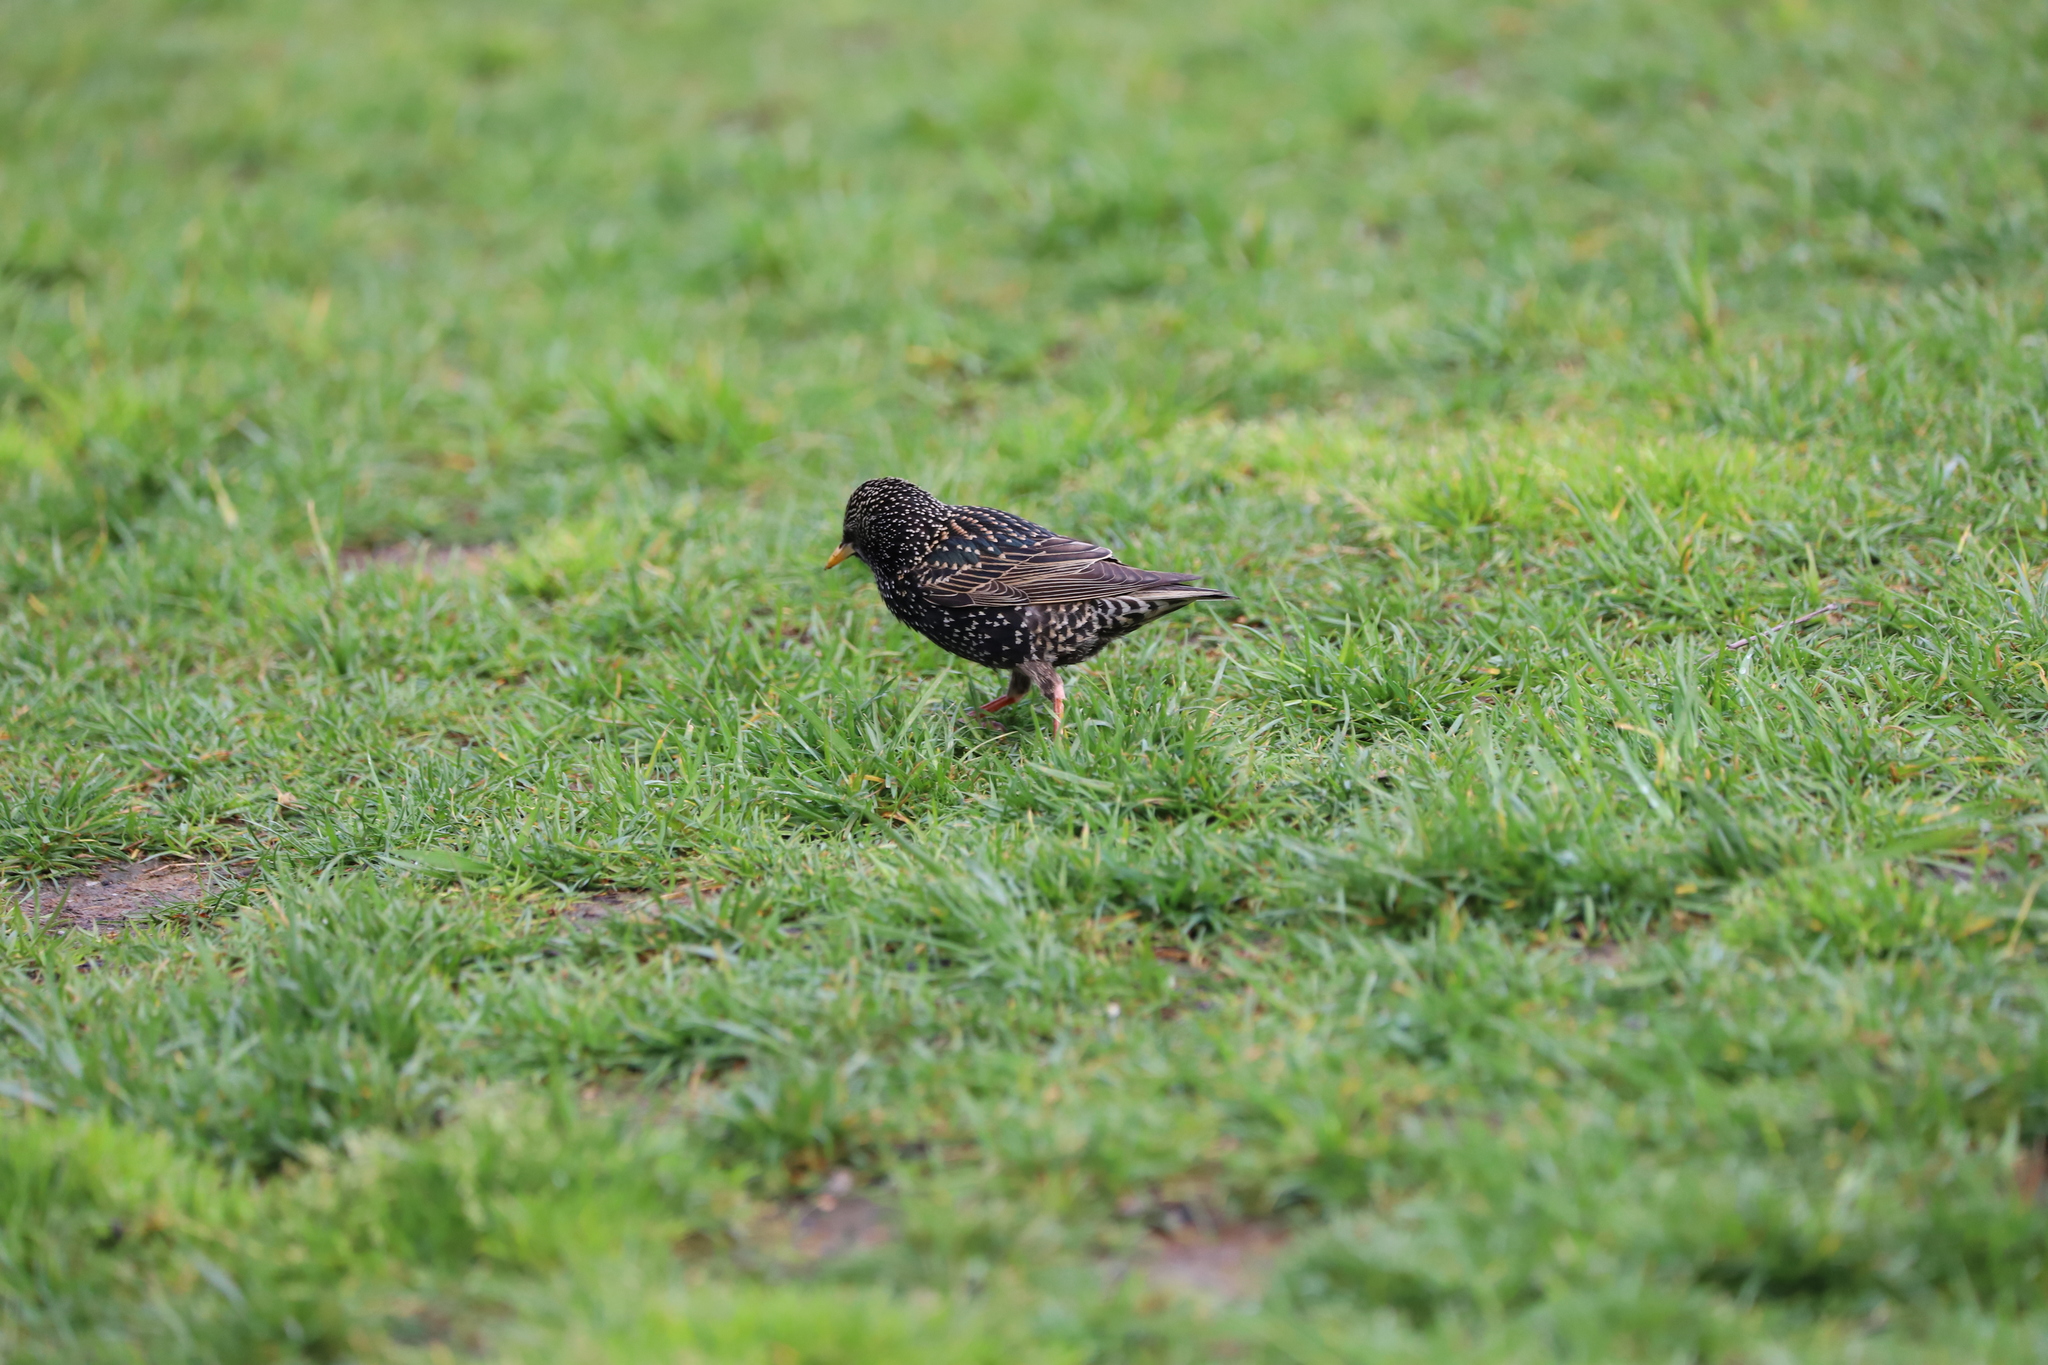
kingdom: Animalia
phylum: Chordata
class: Aves
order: Passeriformes
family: Sturnidae
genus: Sturnus
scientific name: Sturnus vulgaris
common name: Common starling
